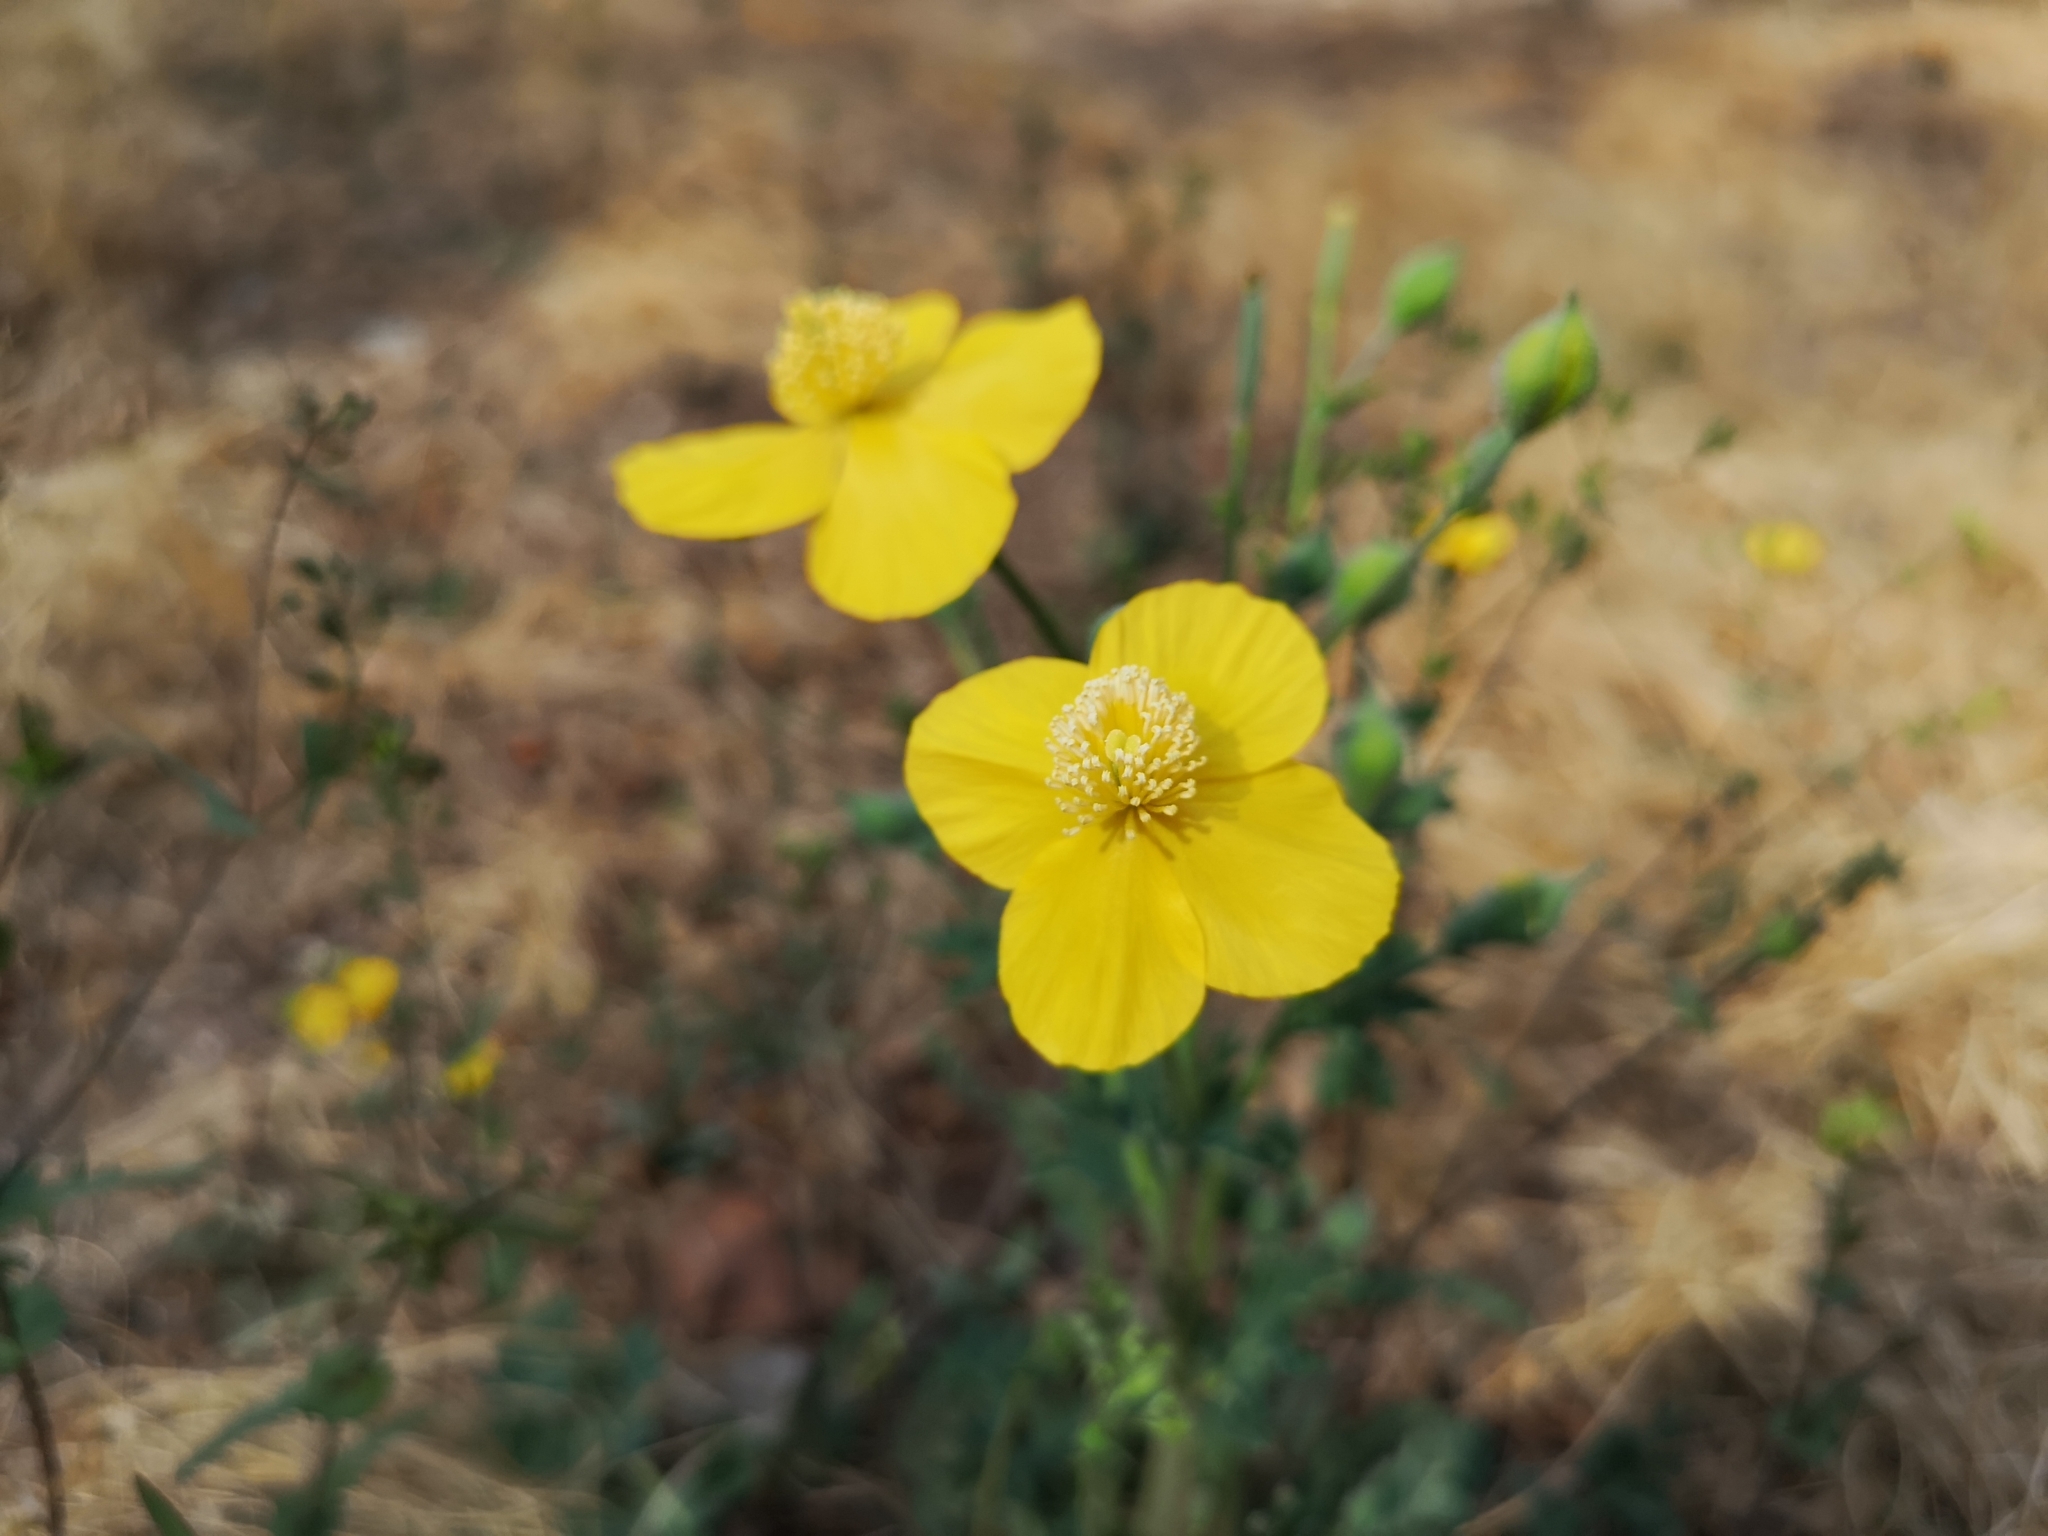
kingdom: Plantae
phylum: Tracheophyta
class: Magnoliopsida
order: Ranunculales
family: Papaveraceae
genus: Dicranostigma
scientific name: Dicranostigma leptopodum
